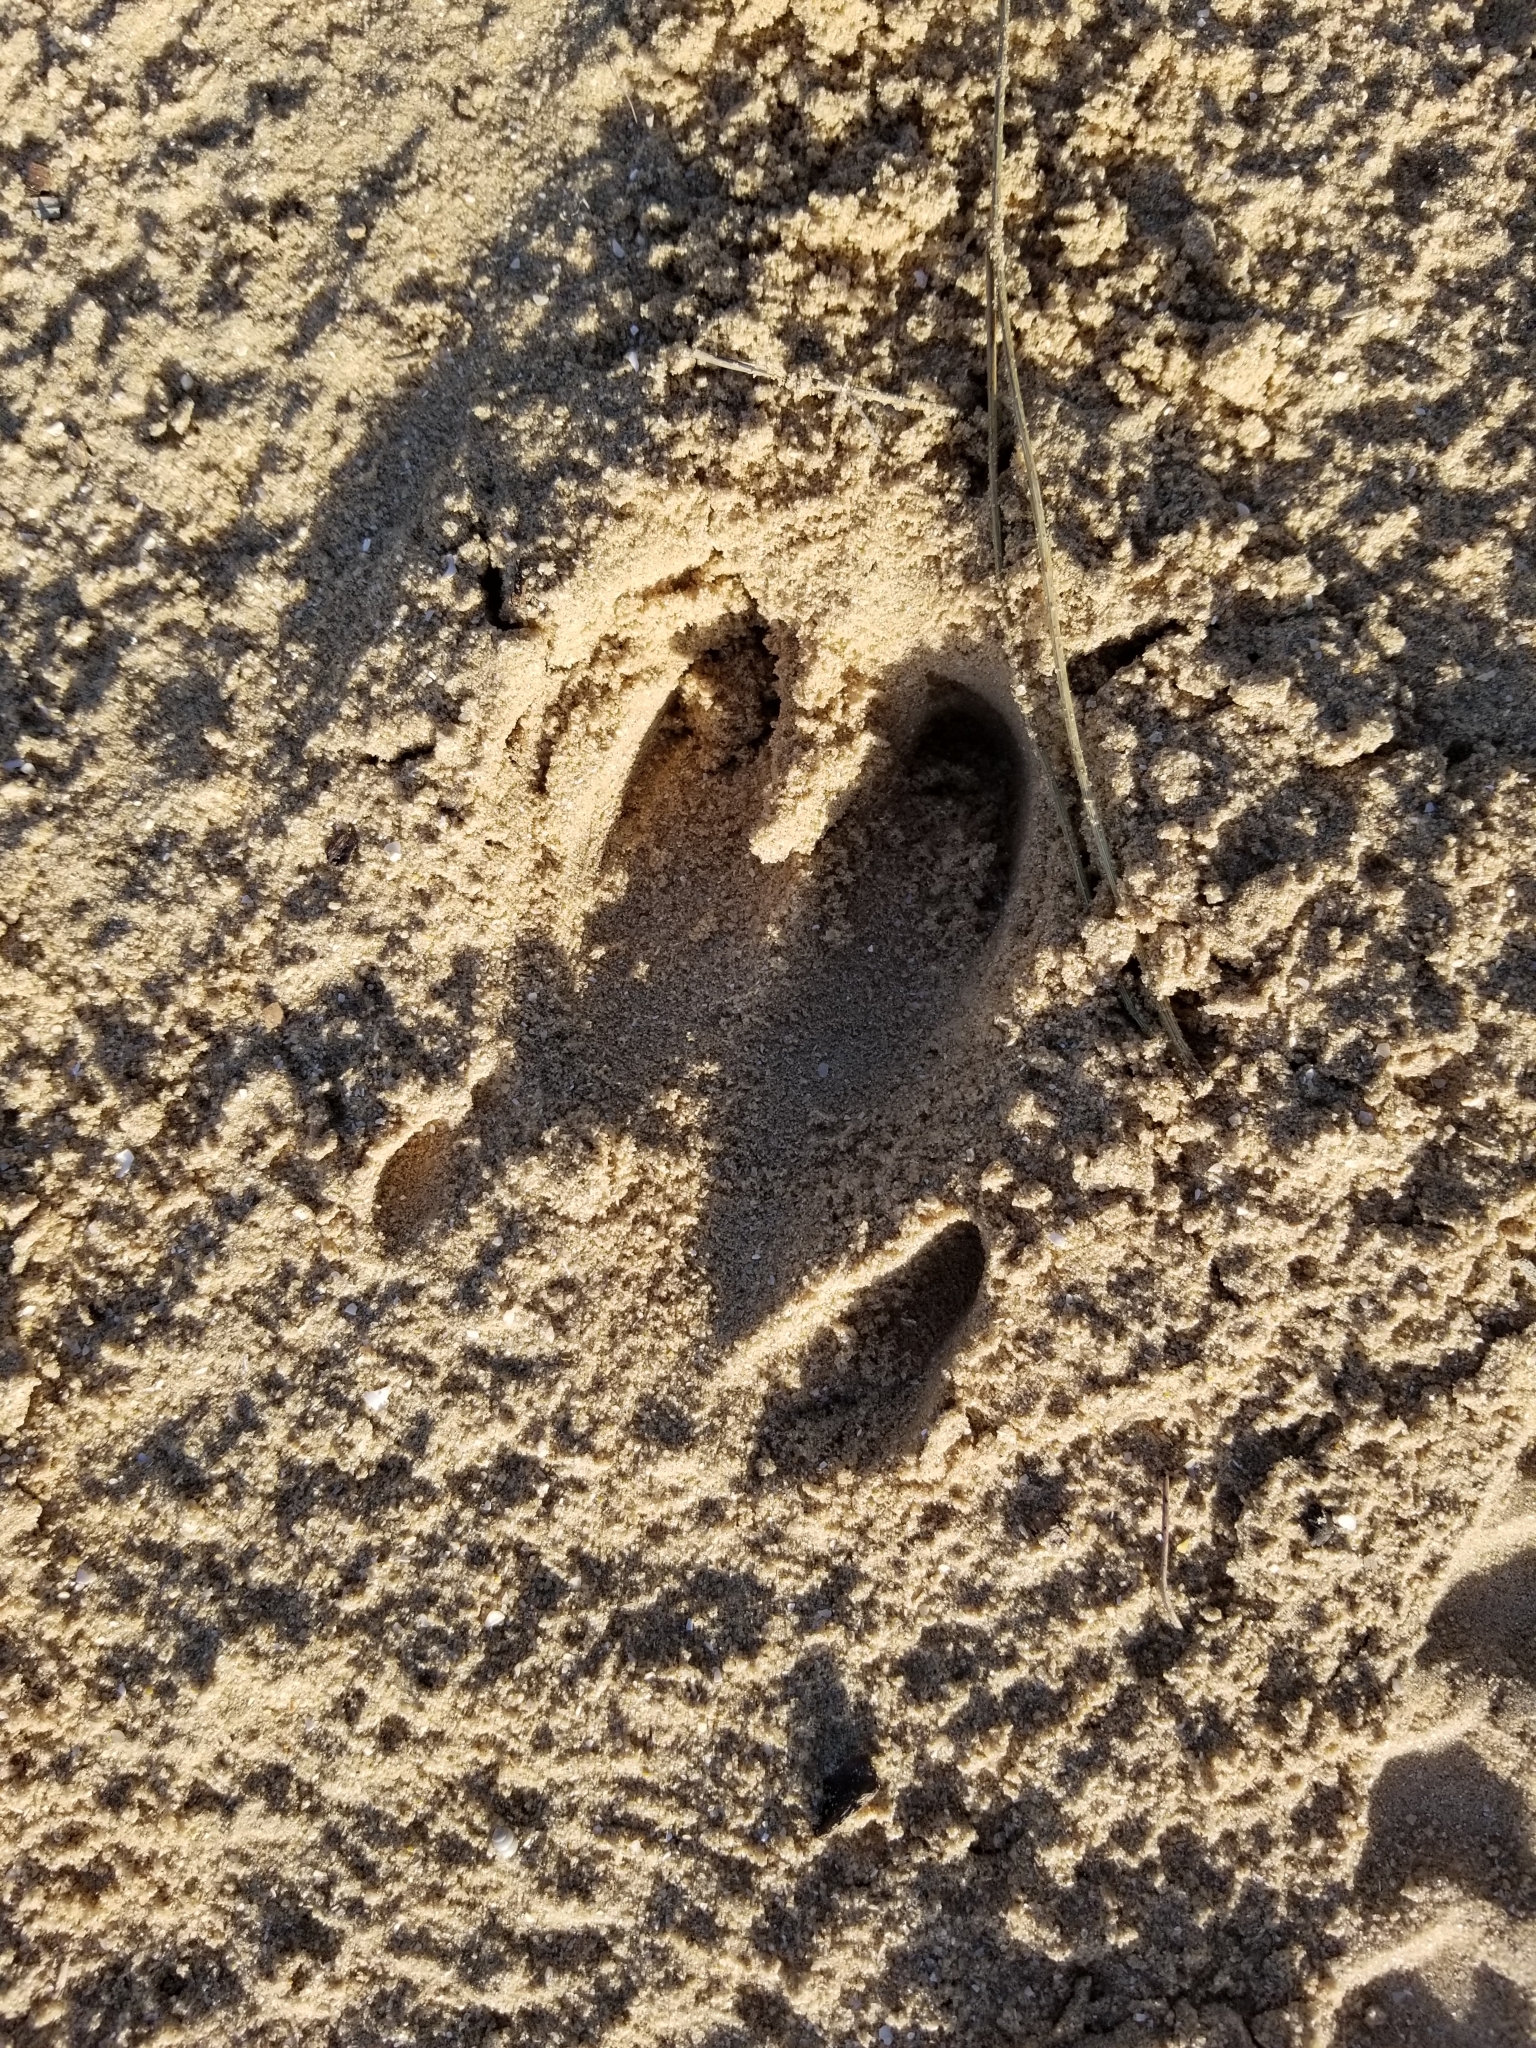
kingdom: Animalia
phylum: Chordata
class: Mammalia
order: Artiodactyla
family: Suidae
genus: Sus
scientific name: Sus scrofa
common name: Wild boar
